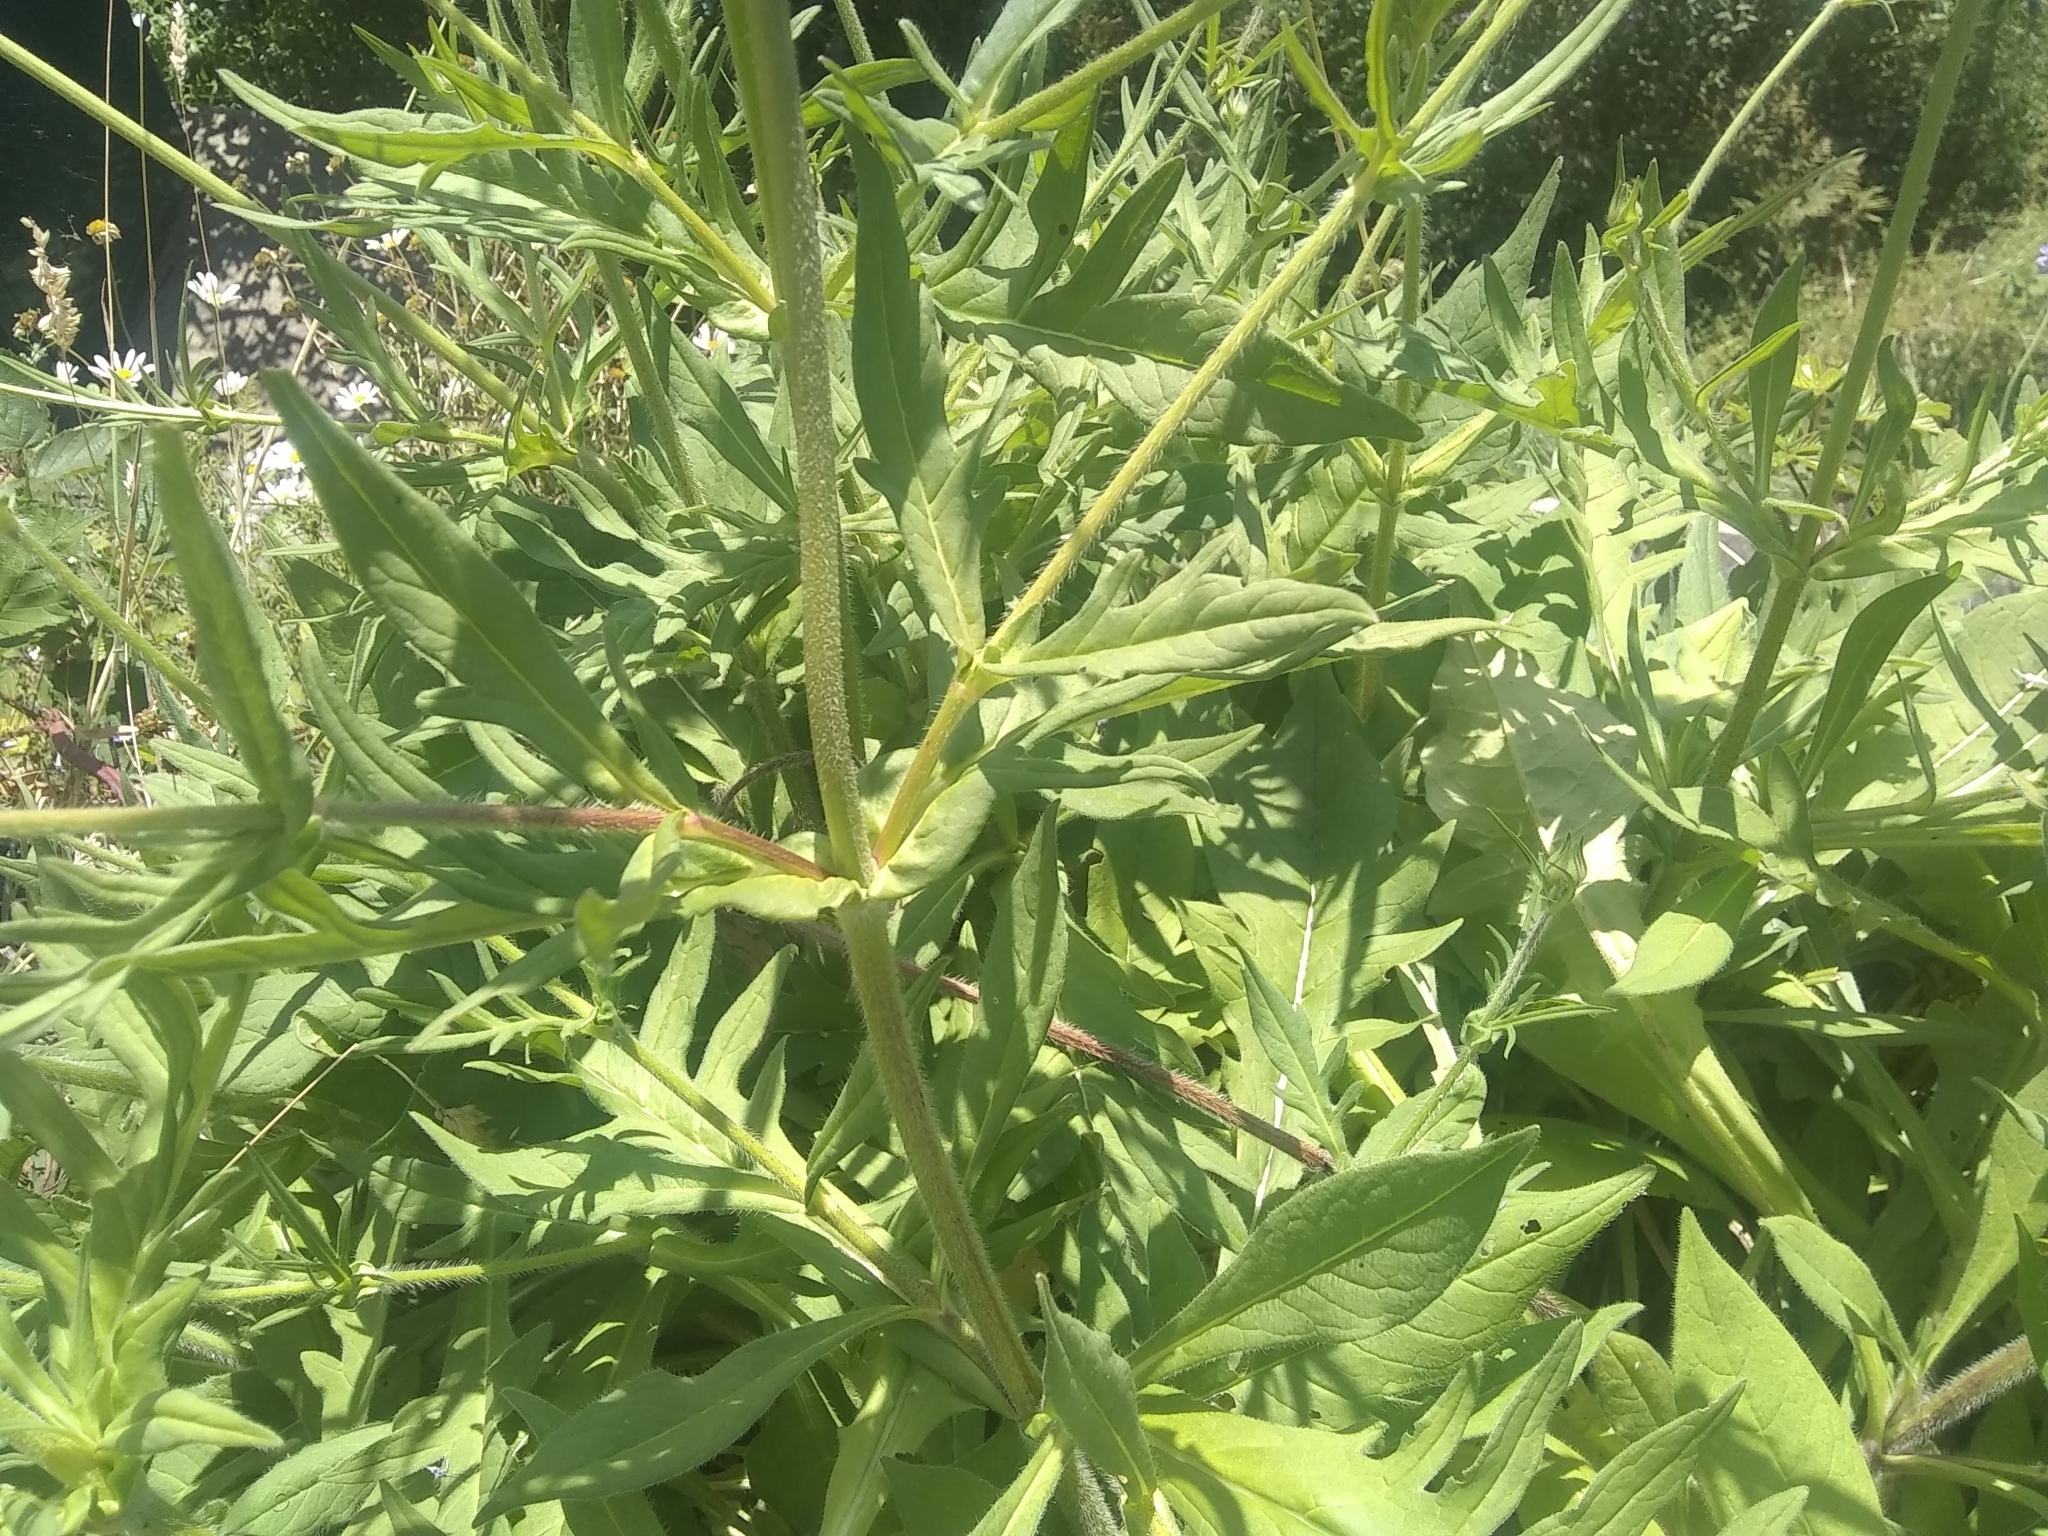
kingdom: Plantae
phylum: Tracheophyta
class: Magnoliopsida
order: Dipsacales
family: Caprifoliaceae
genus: Knautia
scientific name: Knautia arvensis
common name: Field scabiosa
